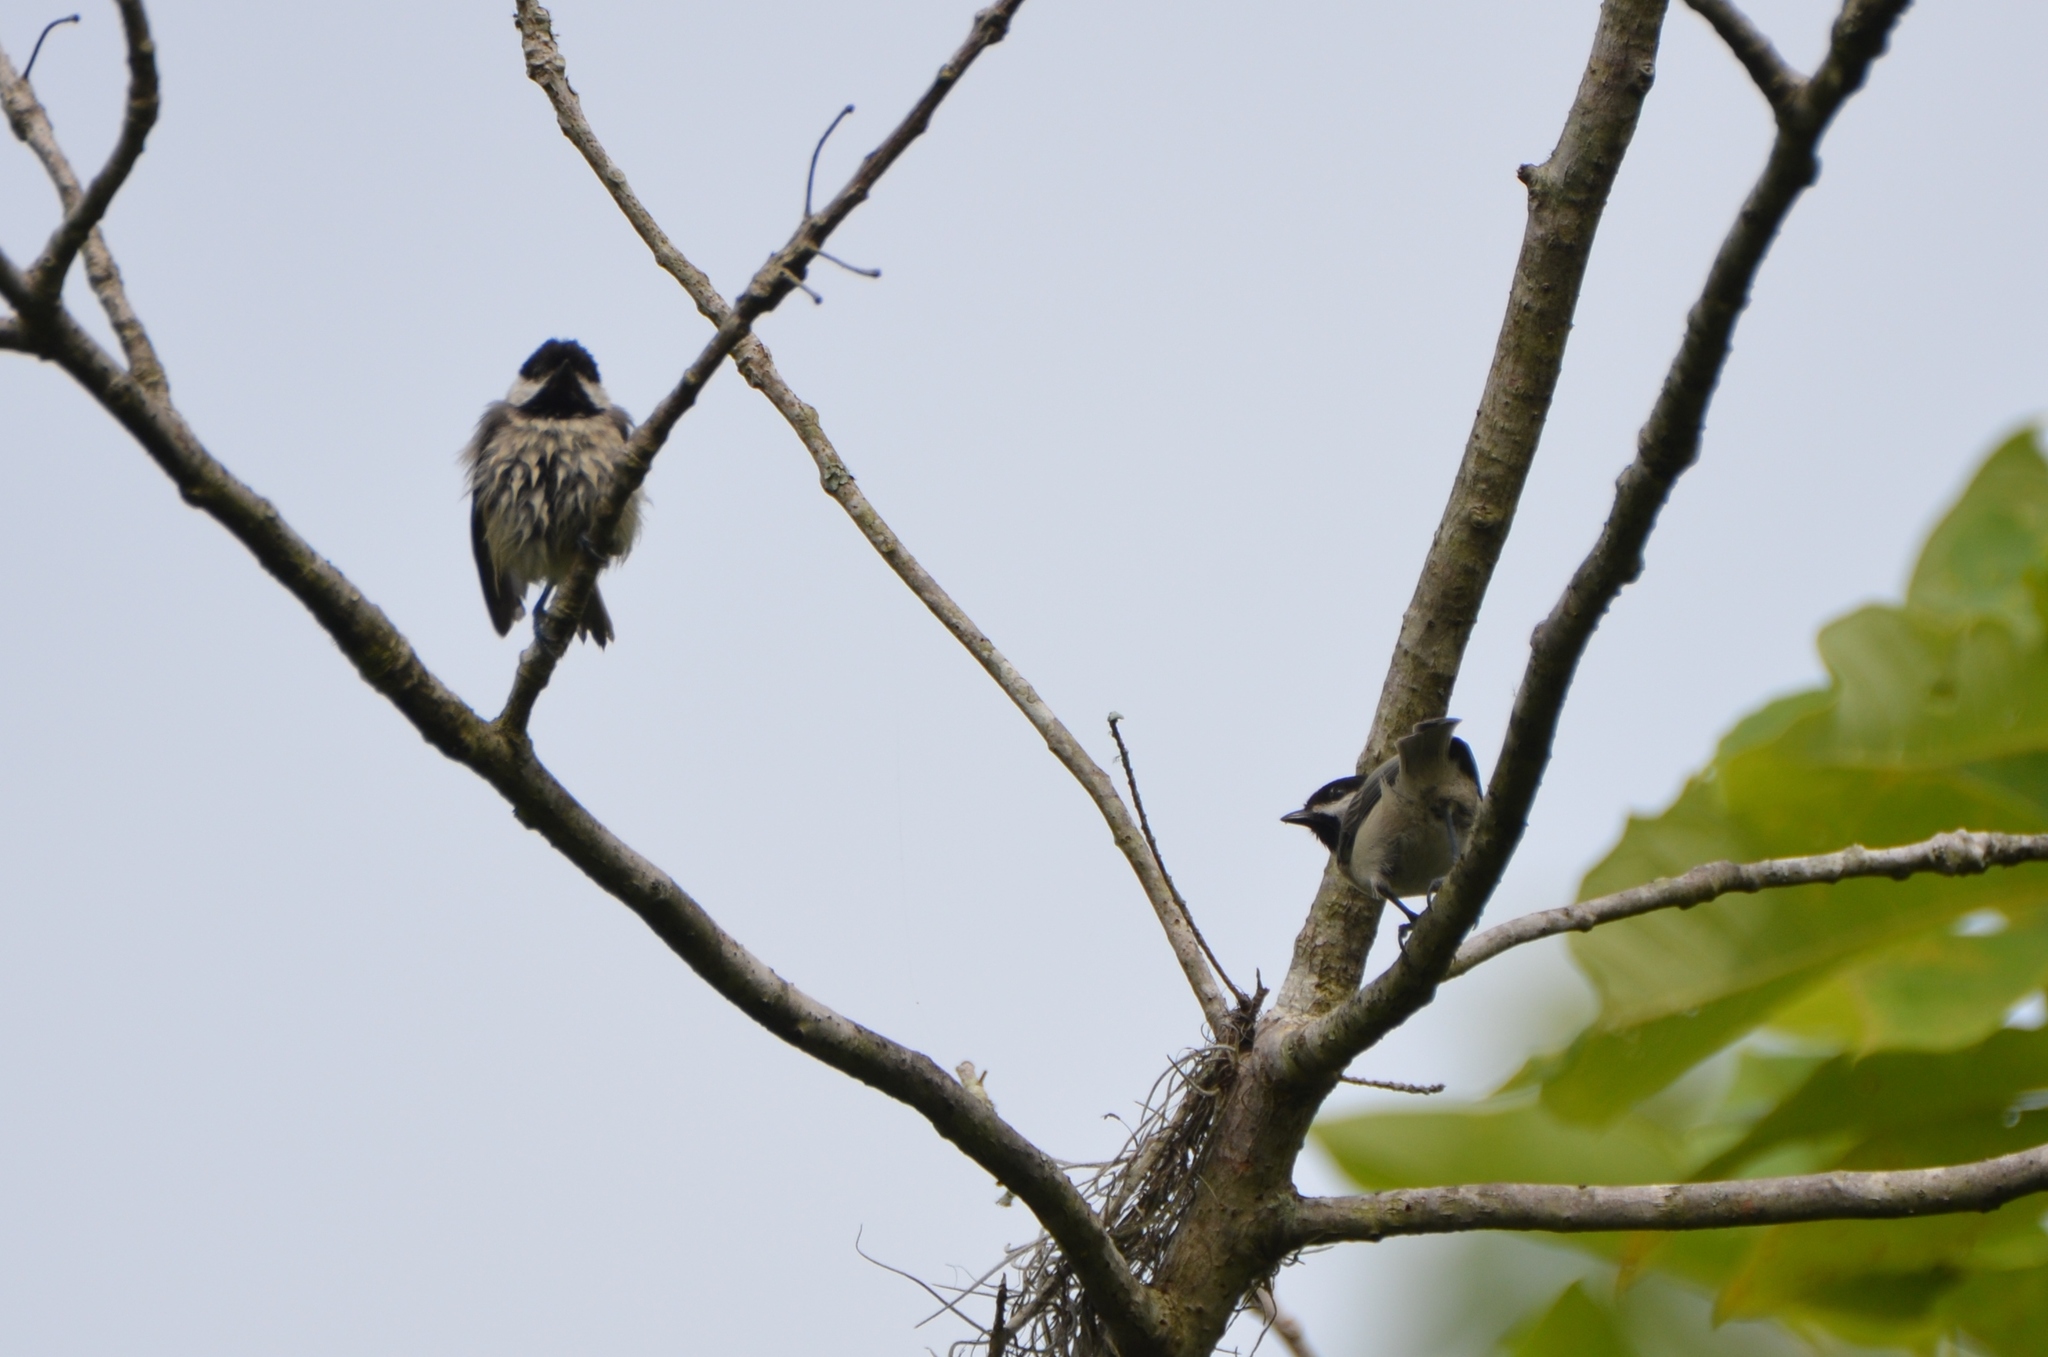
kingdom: Animalia
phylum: Chordata
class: Aves
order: Passeriformes
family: Paridae
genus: Poecile
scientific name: Poecile carolinensis
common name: Carolina chickadee
